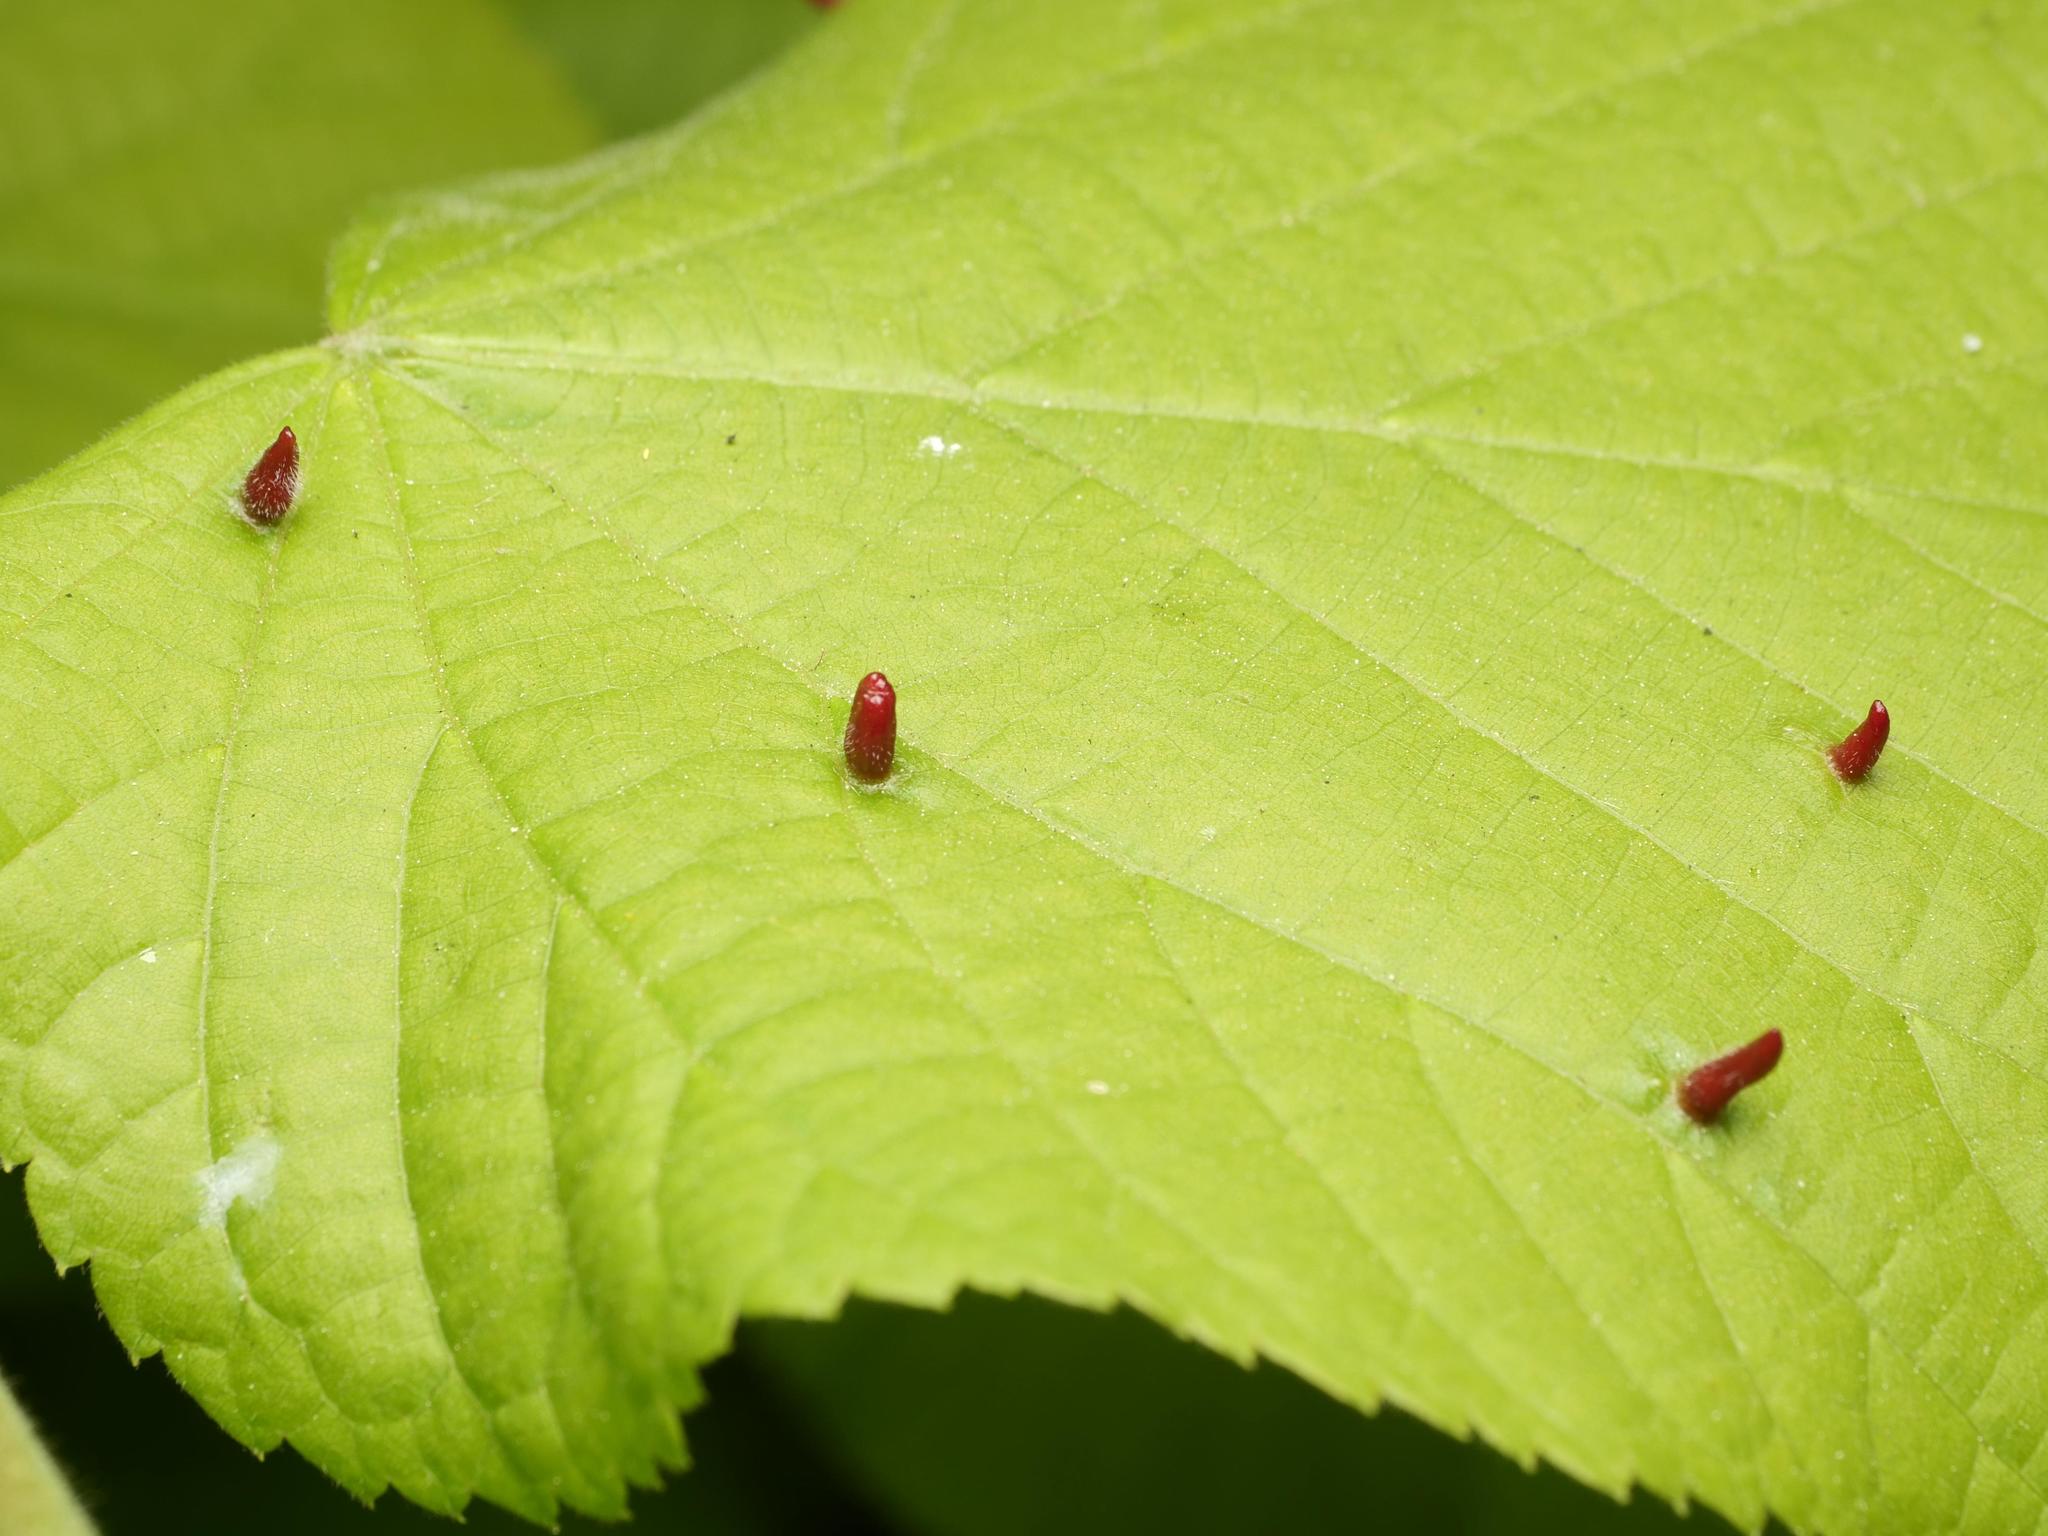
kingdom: Animalia
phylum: Arthropoda
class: Arachnida
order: Trombidiformes
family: Eriophyidae
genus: Eriophyes
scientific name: Eriophyes tiliae
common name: Red nail gall mite
